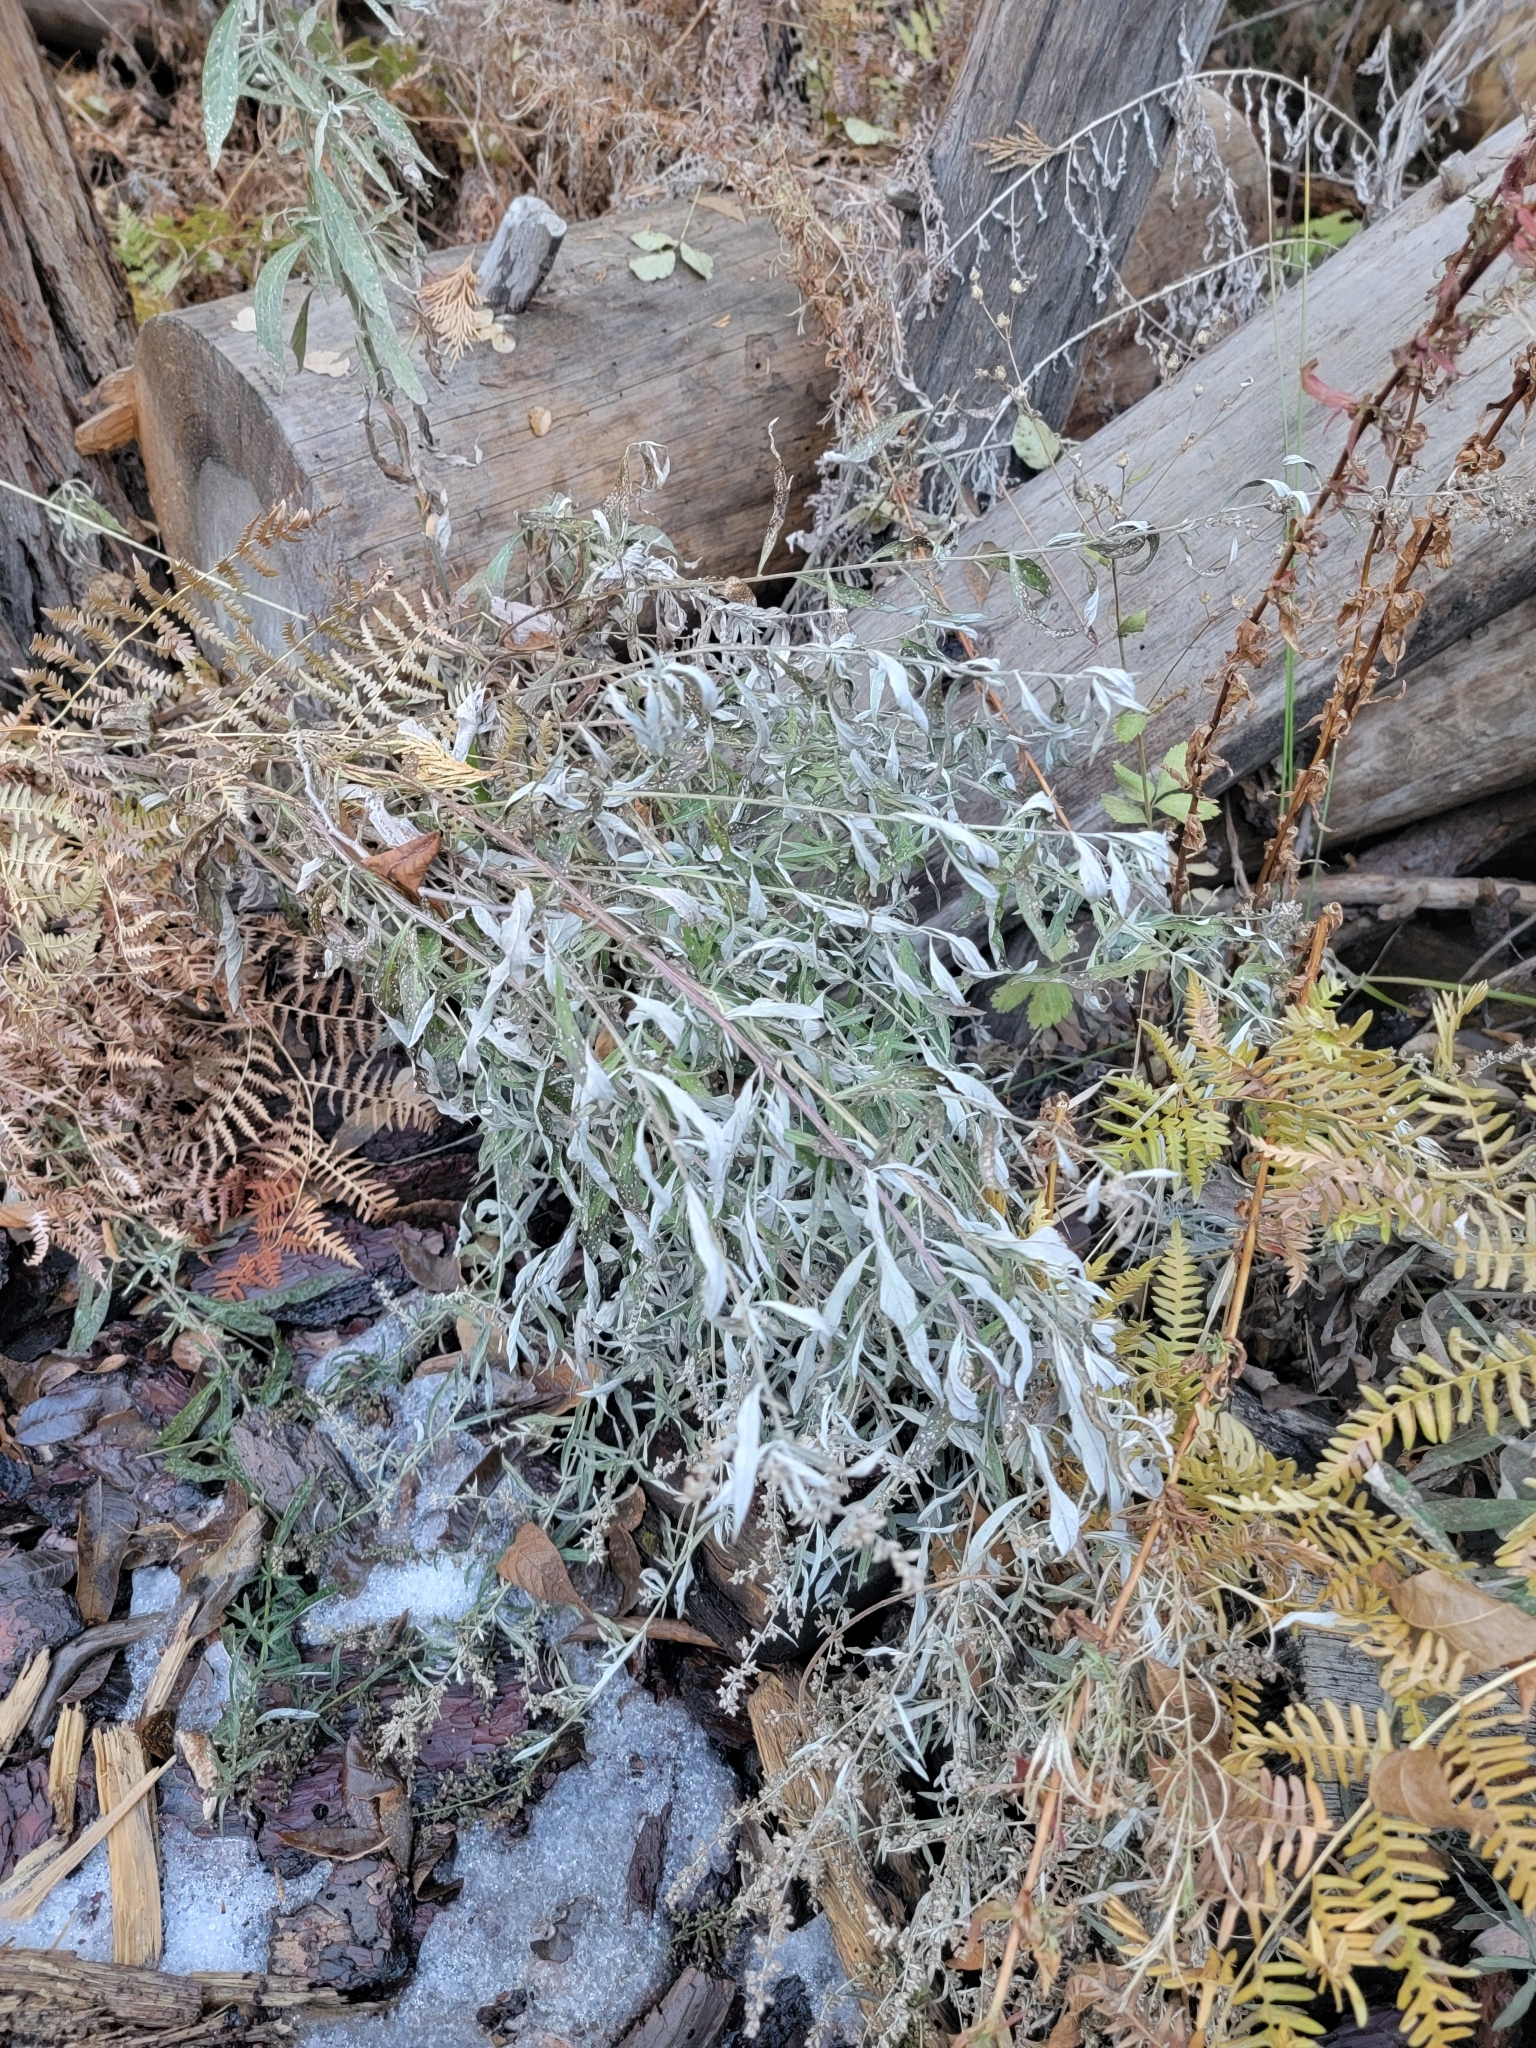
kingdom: Plantae
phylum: Tracheophyta
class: Magnoliopsida
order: Asterales
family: Asteraceae
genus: Artemisia
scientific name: Artemisia douglasiana
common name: Northwest mugwort
